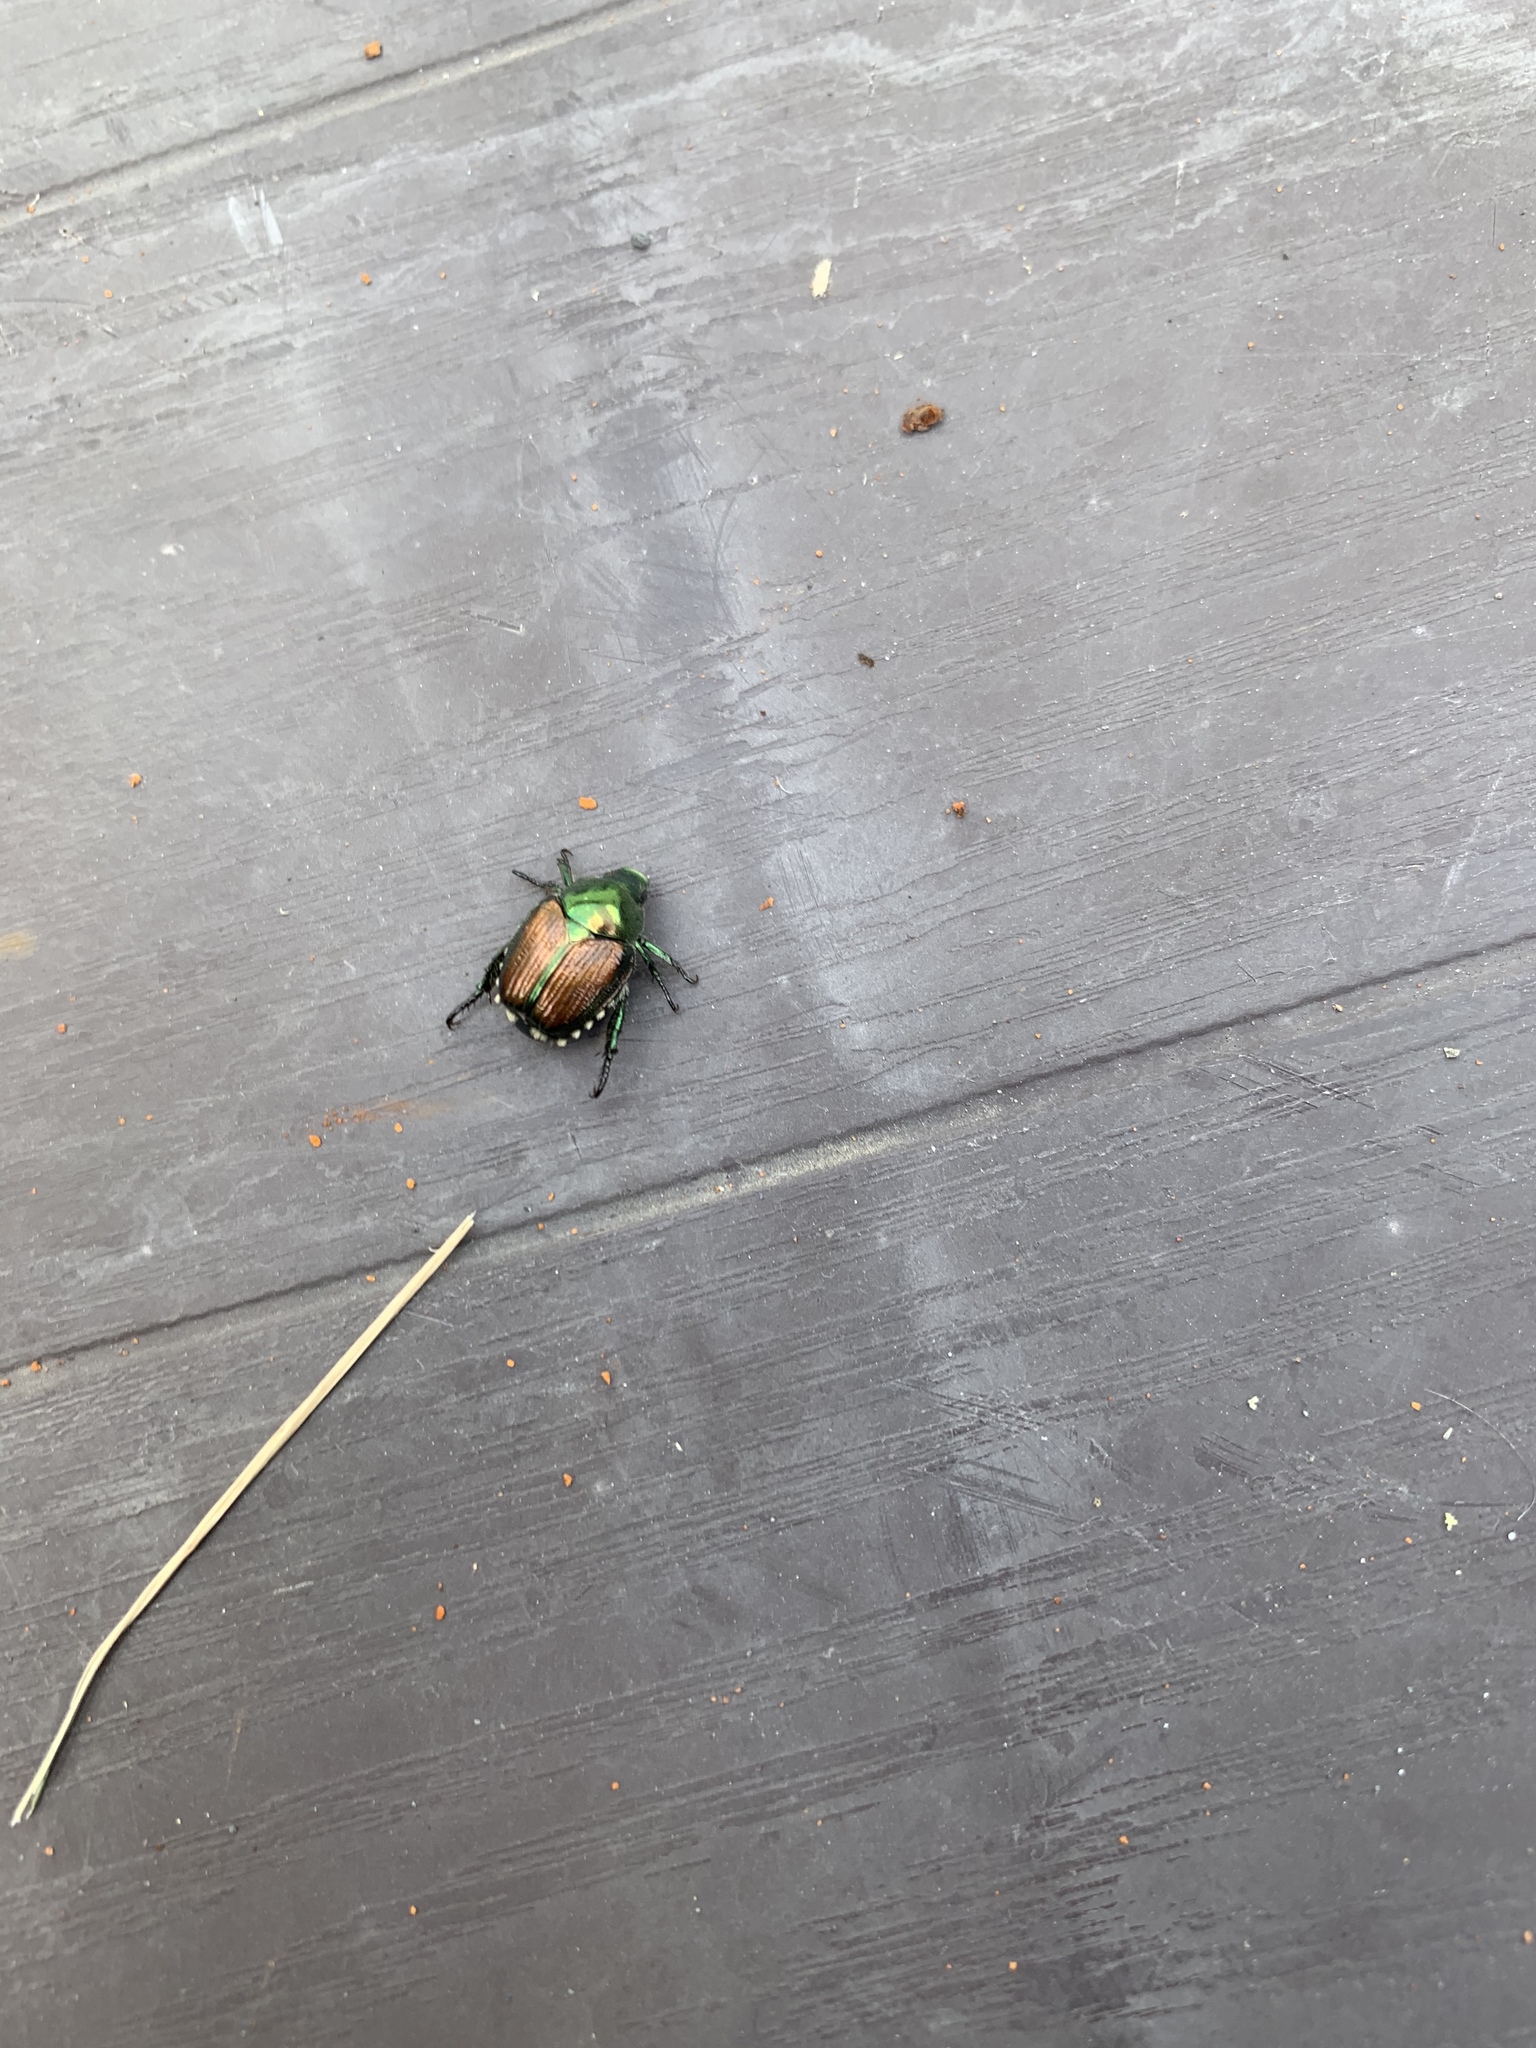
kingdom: Animalia
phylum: Arthropoda
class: Insecta
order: Coleoptera
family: Scarabaeidae
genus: Popillia
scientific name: Popillia japonica
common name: Japanese beetle
